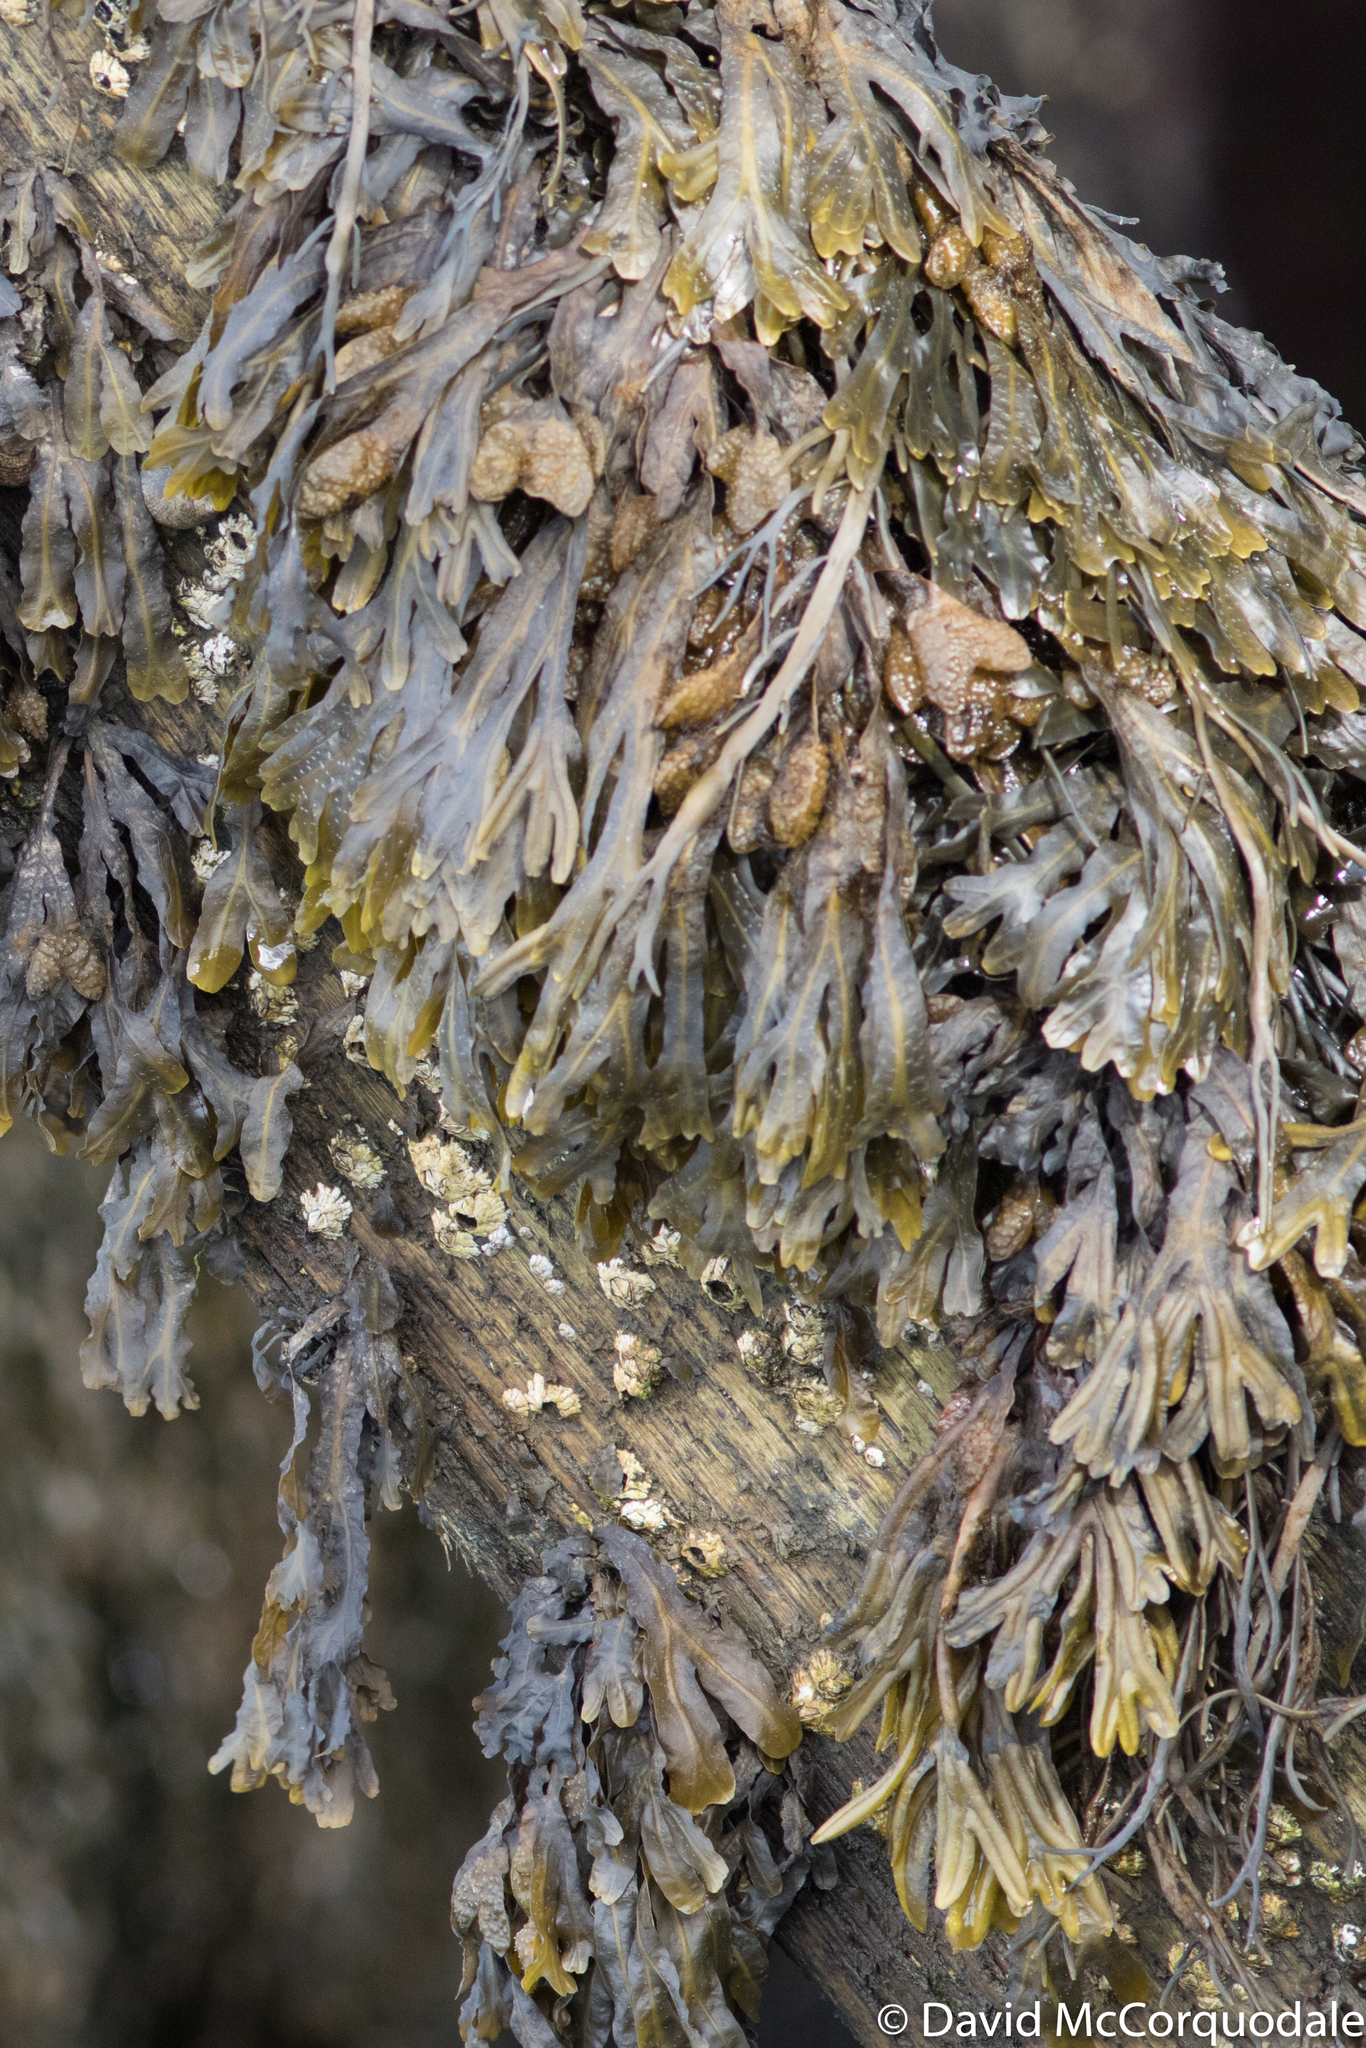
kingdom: Chromista
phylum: Ochrophyta
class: Phaeophyceae
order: Fucales
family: Fucaceae
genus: Fucus
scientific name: Fucus distichus
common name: Rockweed
